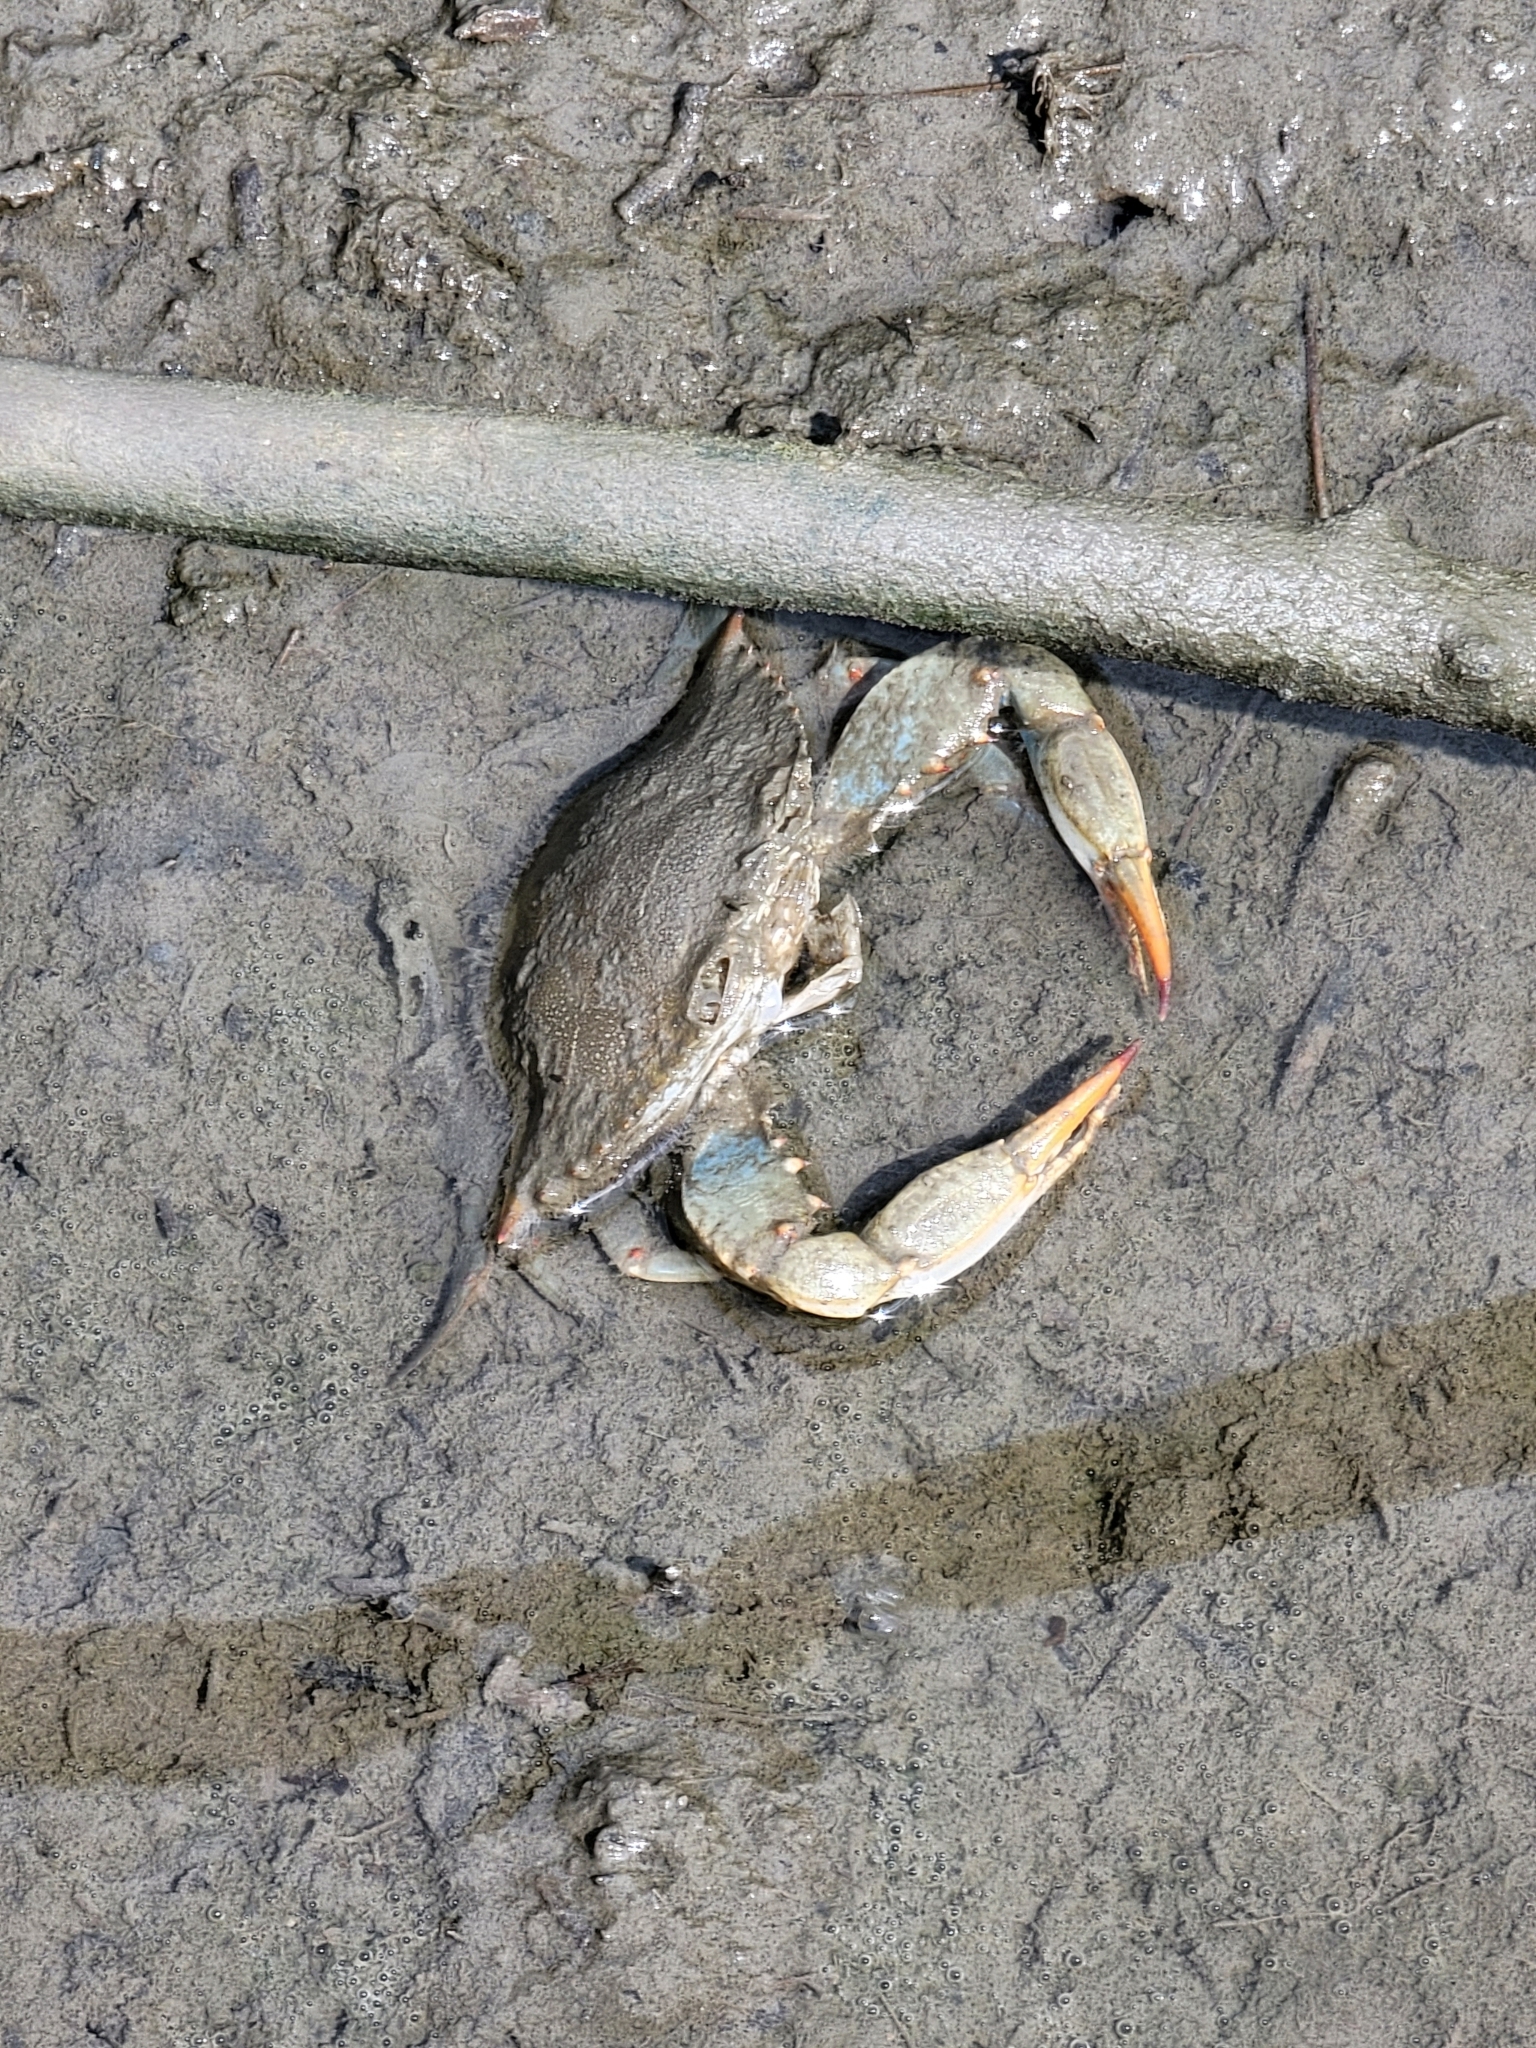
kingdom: Animalia
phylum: Arthropoda
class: Malacostraca
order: Decapoda
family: Portunidae
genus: Callinectes
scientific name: Callinectes sapidus
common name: Blue crab
